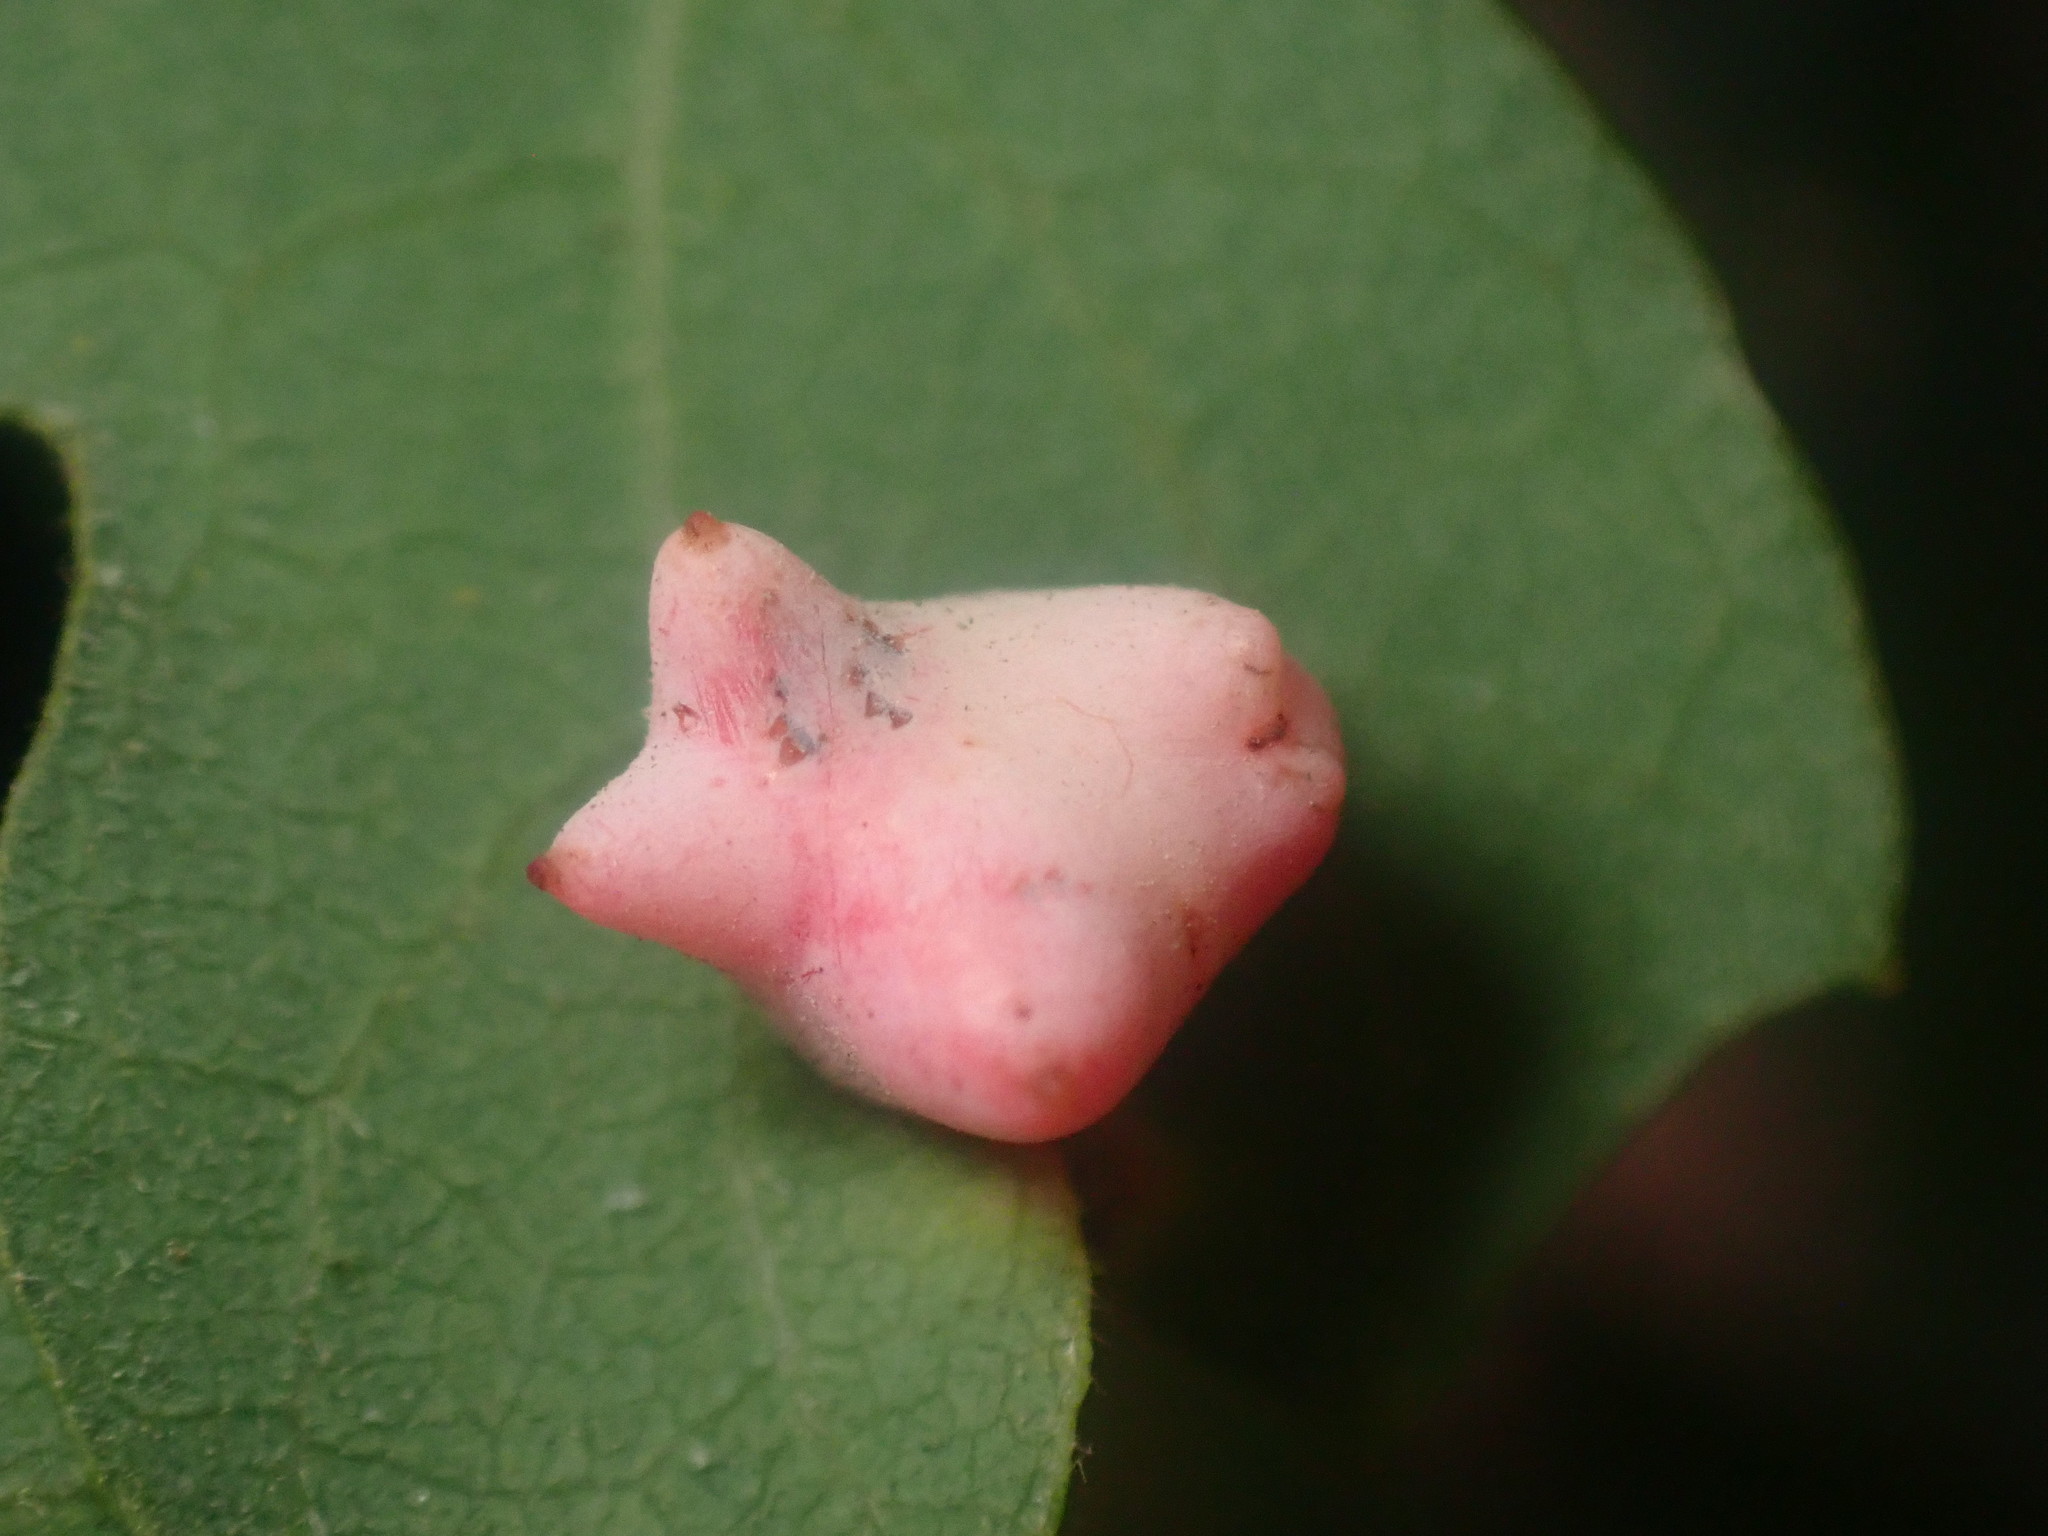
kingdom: Animalia
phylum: Arthropoda
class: Insecta
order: Hymenoptera
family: Cynipidae
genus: Cynips
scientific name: Cynips douglasi
